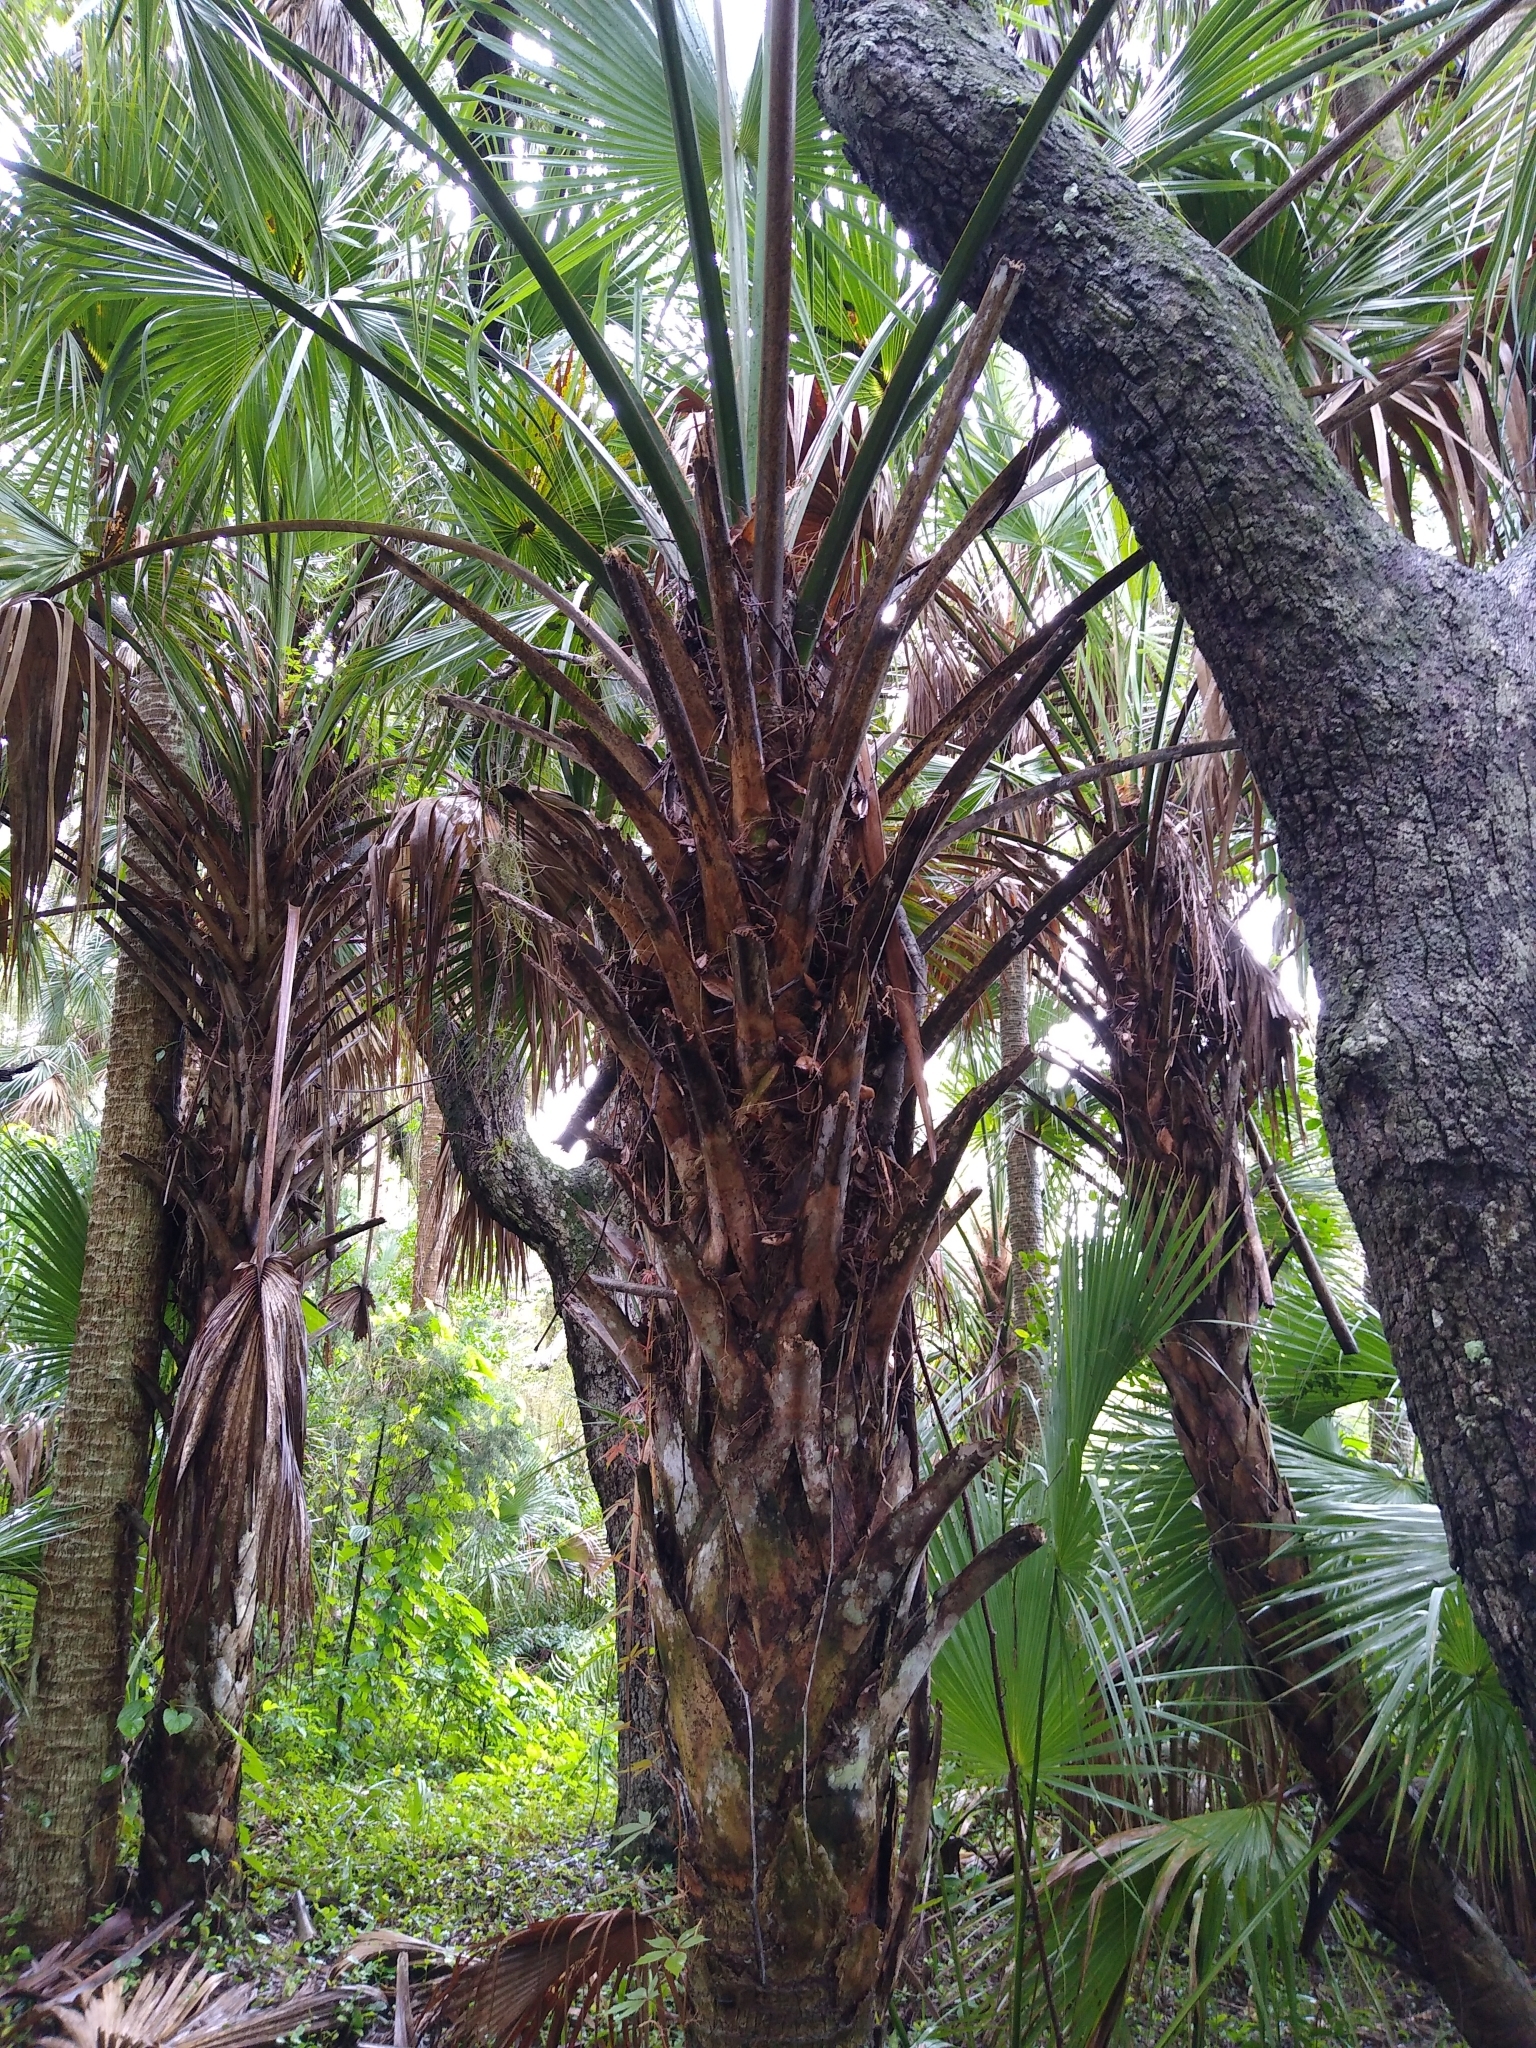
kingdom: Plantae
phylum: Tracheophyta
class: Liliopsida
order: Arecales
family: Arecaceae
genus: Sabal
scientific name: Sabal palmetto
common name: Blue palmetto
